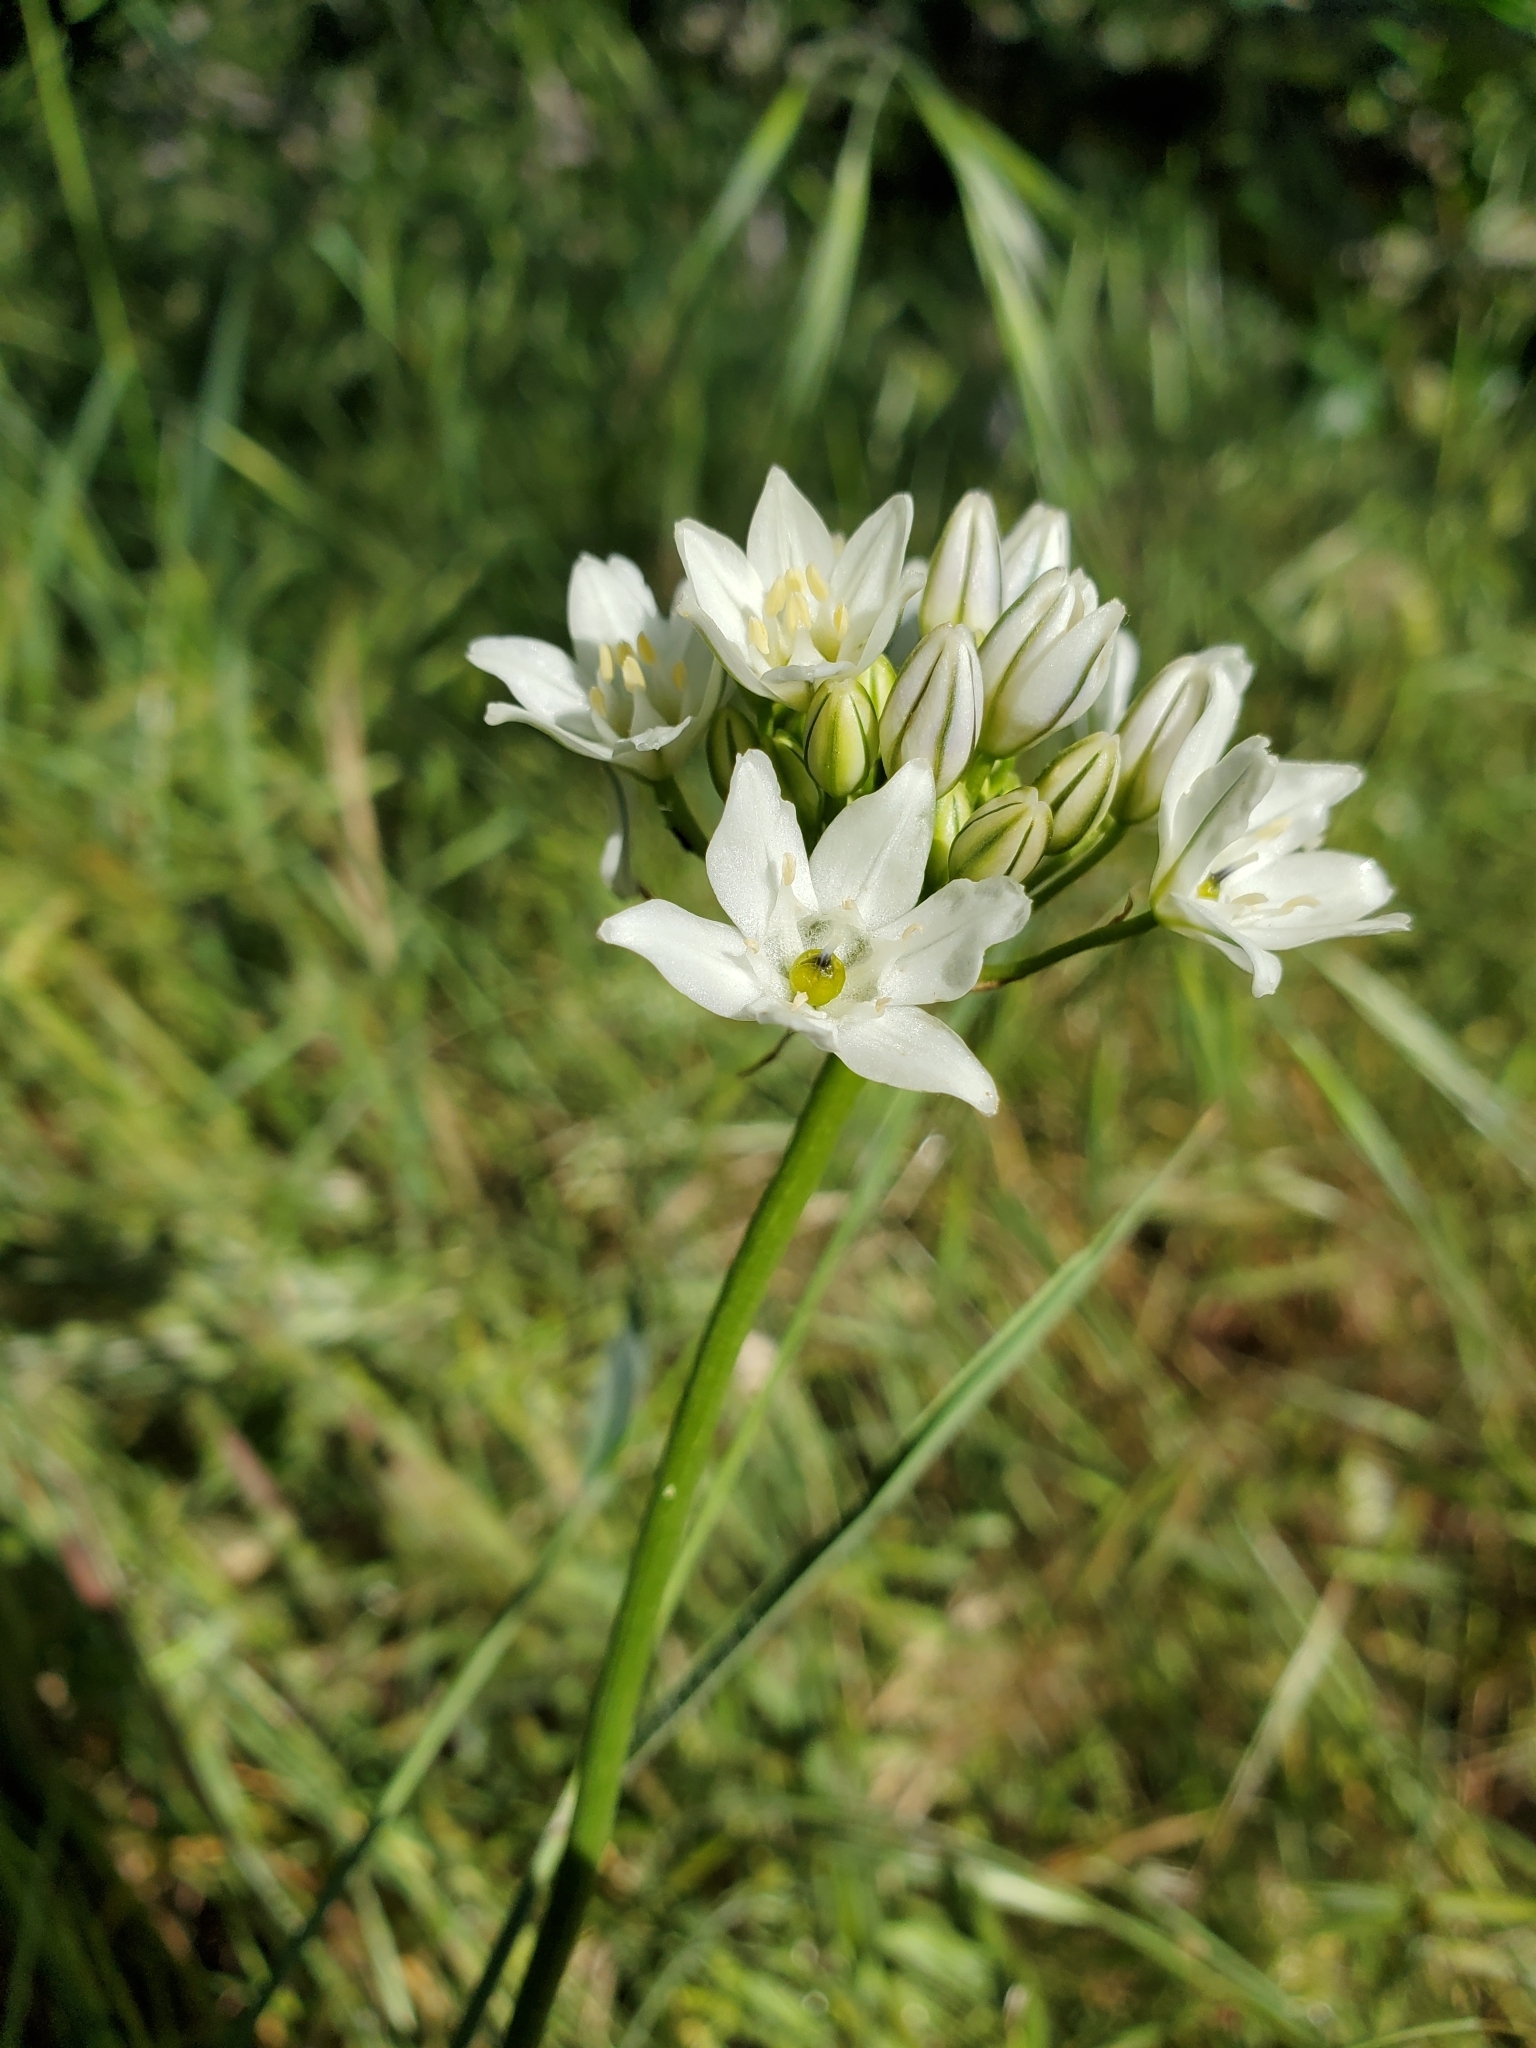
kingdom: Plantae
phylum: Tracheophyta
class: Liliopsida
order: Asparagales
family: Asparagaceae
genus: Triteleia
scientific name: Triteleia hyacinthina
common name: White brodiaea
